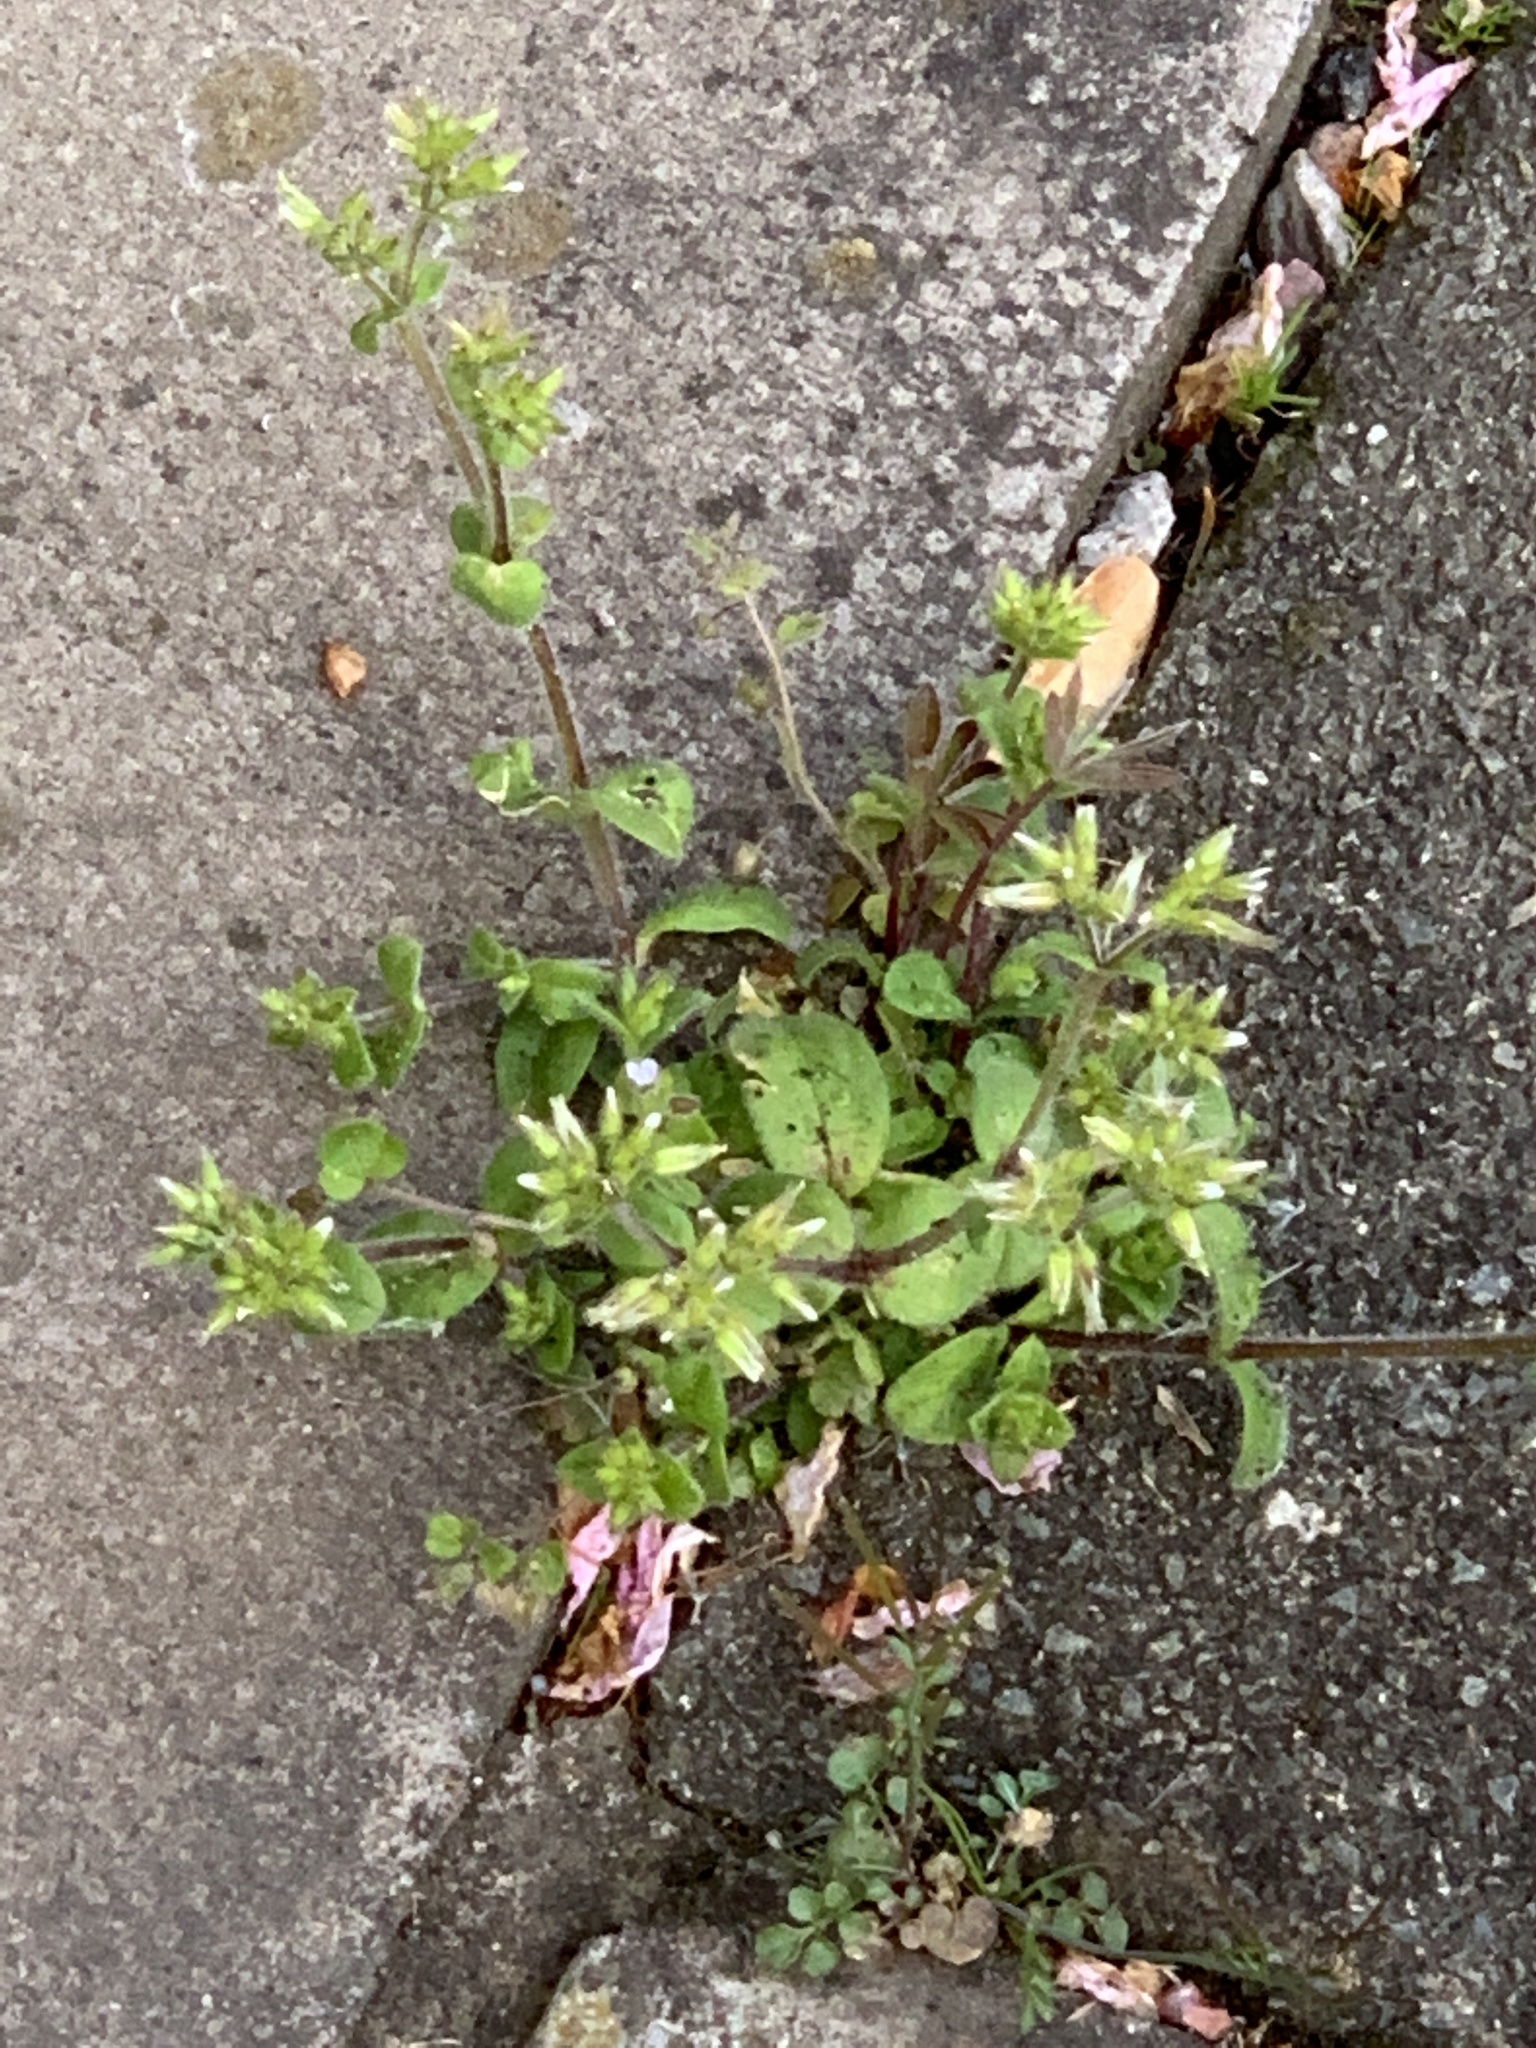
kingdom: Plantae
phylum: Tracheophyta
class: Magnoliopsida
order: Caryophyllales
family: Caryophyllaceae
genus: Cerastium
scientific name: Cerastium glomeratum
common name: Sticky chickweed
